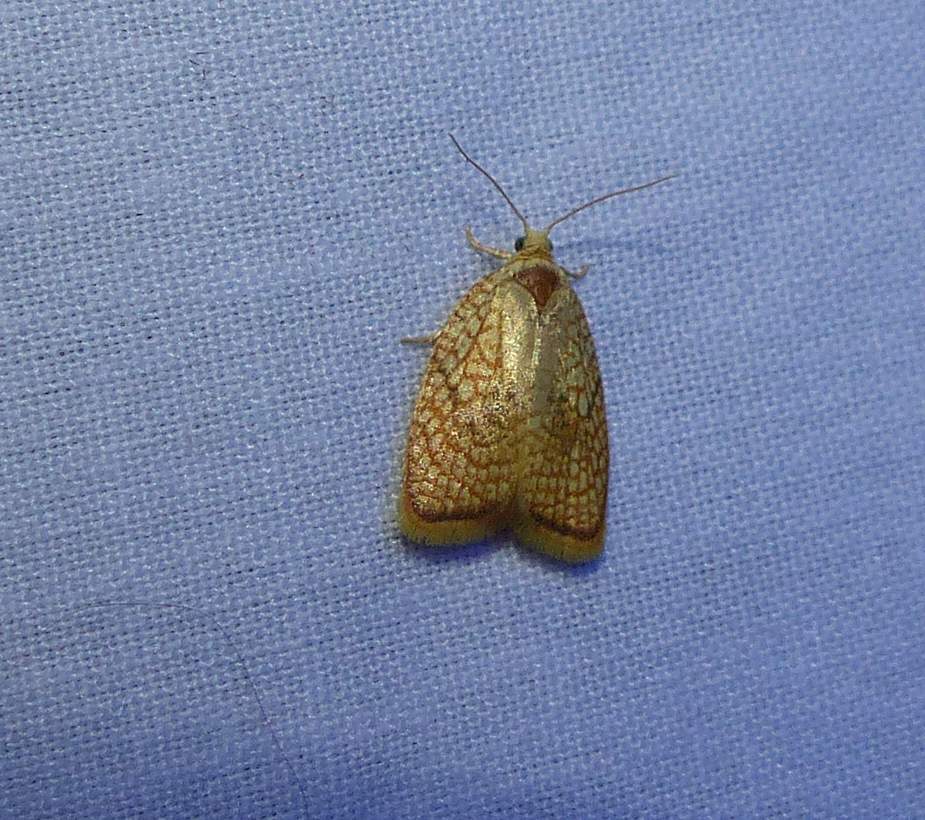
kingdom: Animalia
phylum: Arthropoda
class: Insecta
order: Lepidoptera
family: Tortricidae
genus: Acleris
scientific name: Acleris forsskaleana
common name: Maple button
